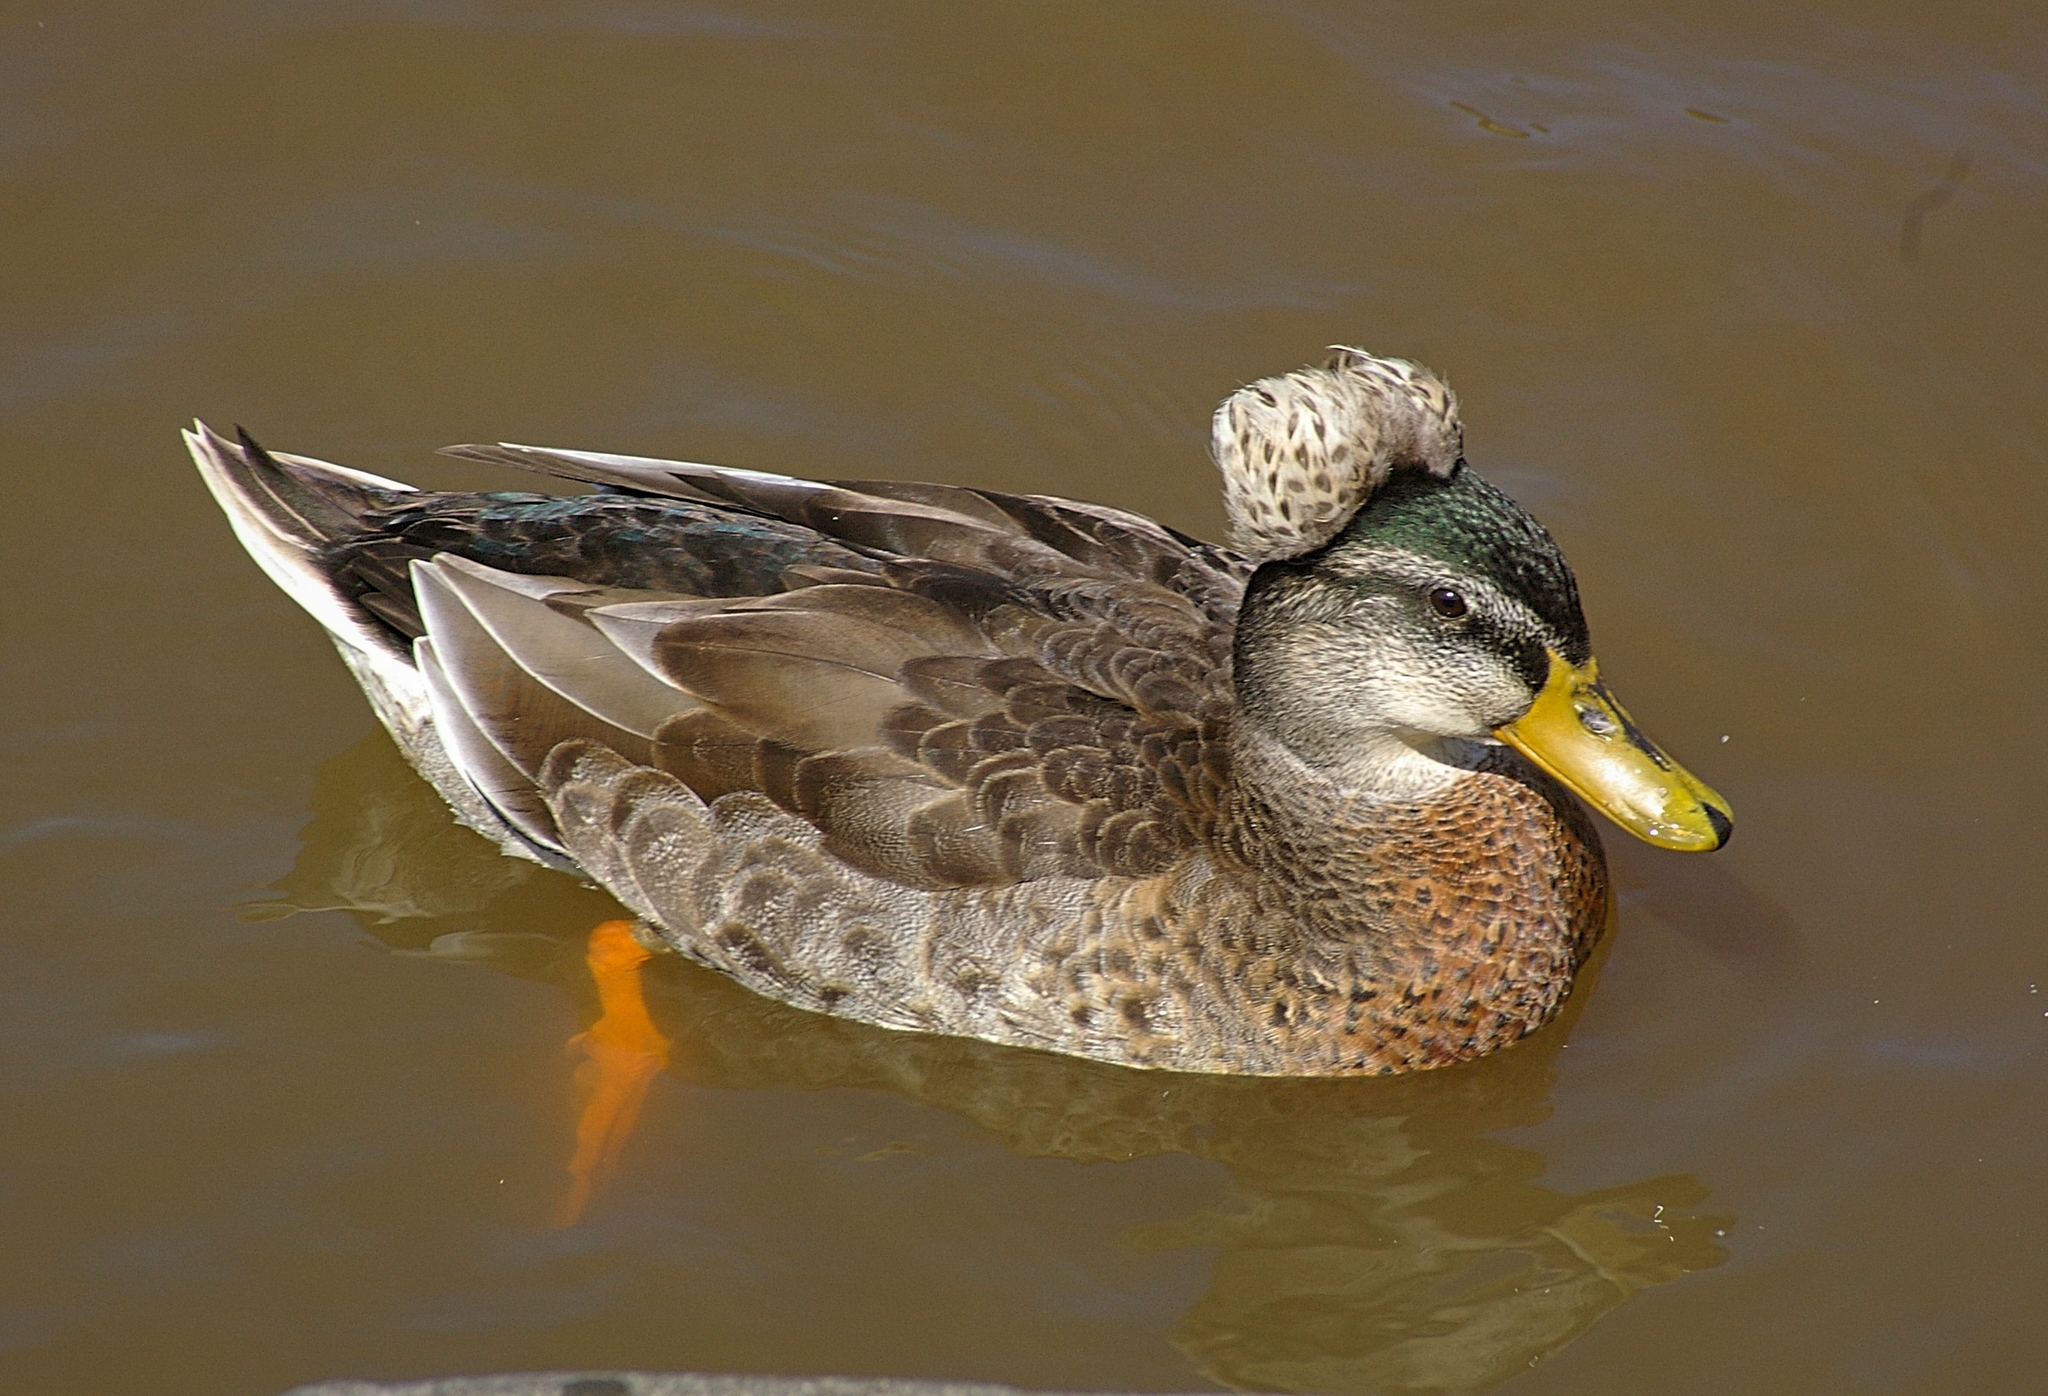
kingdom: Animalia
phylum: Chordata
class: Aves
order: Anseriformes
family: Anatidae
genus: Anas
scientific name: Anas platyrhynchos
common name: Mallard
